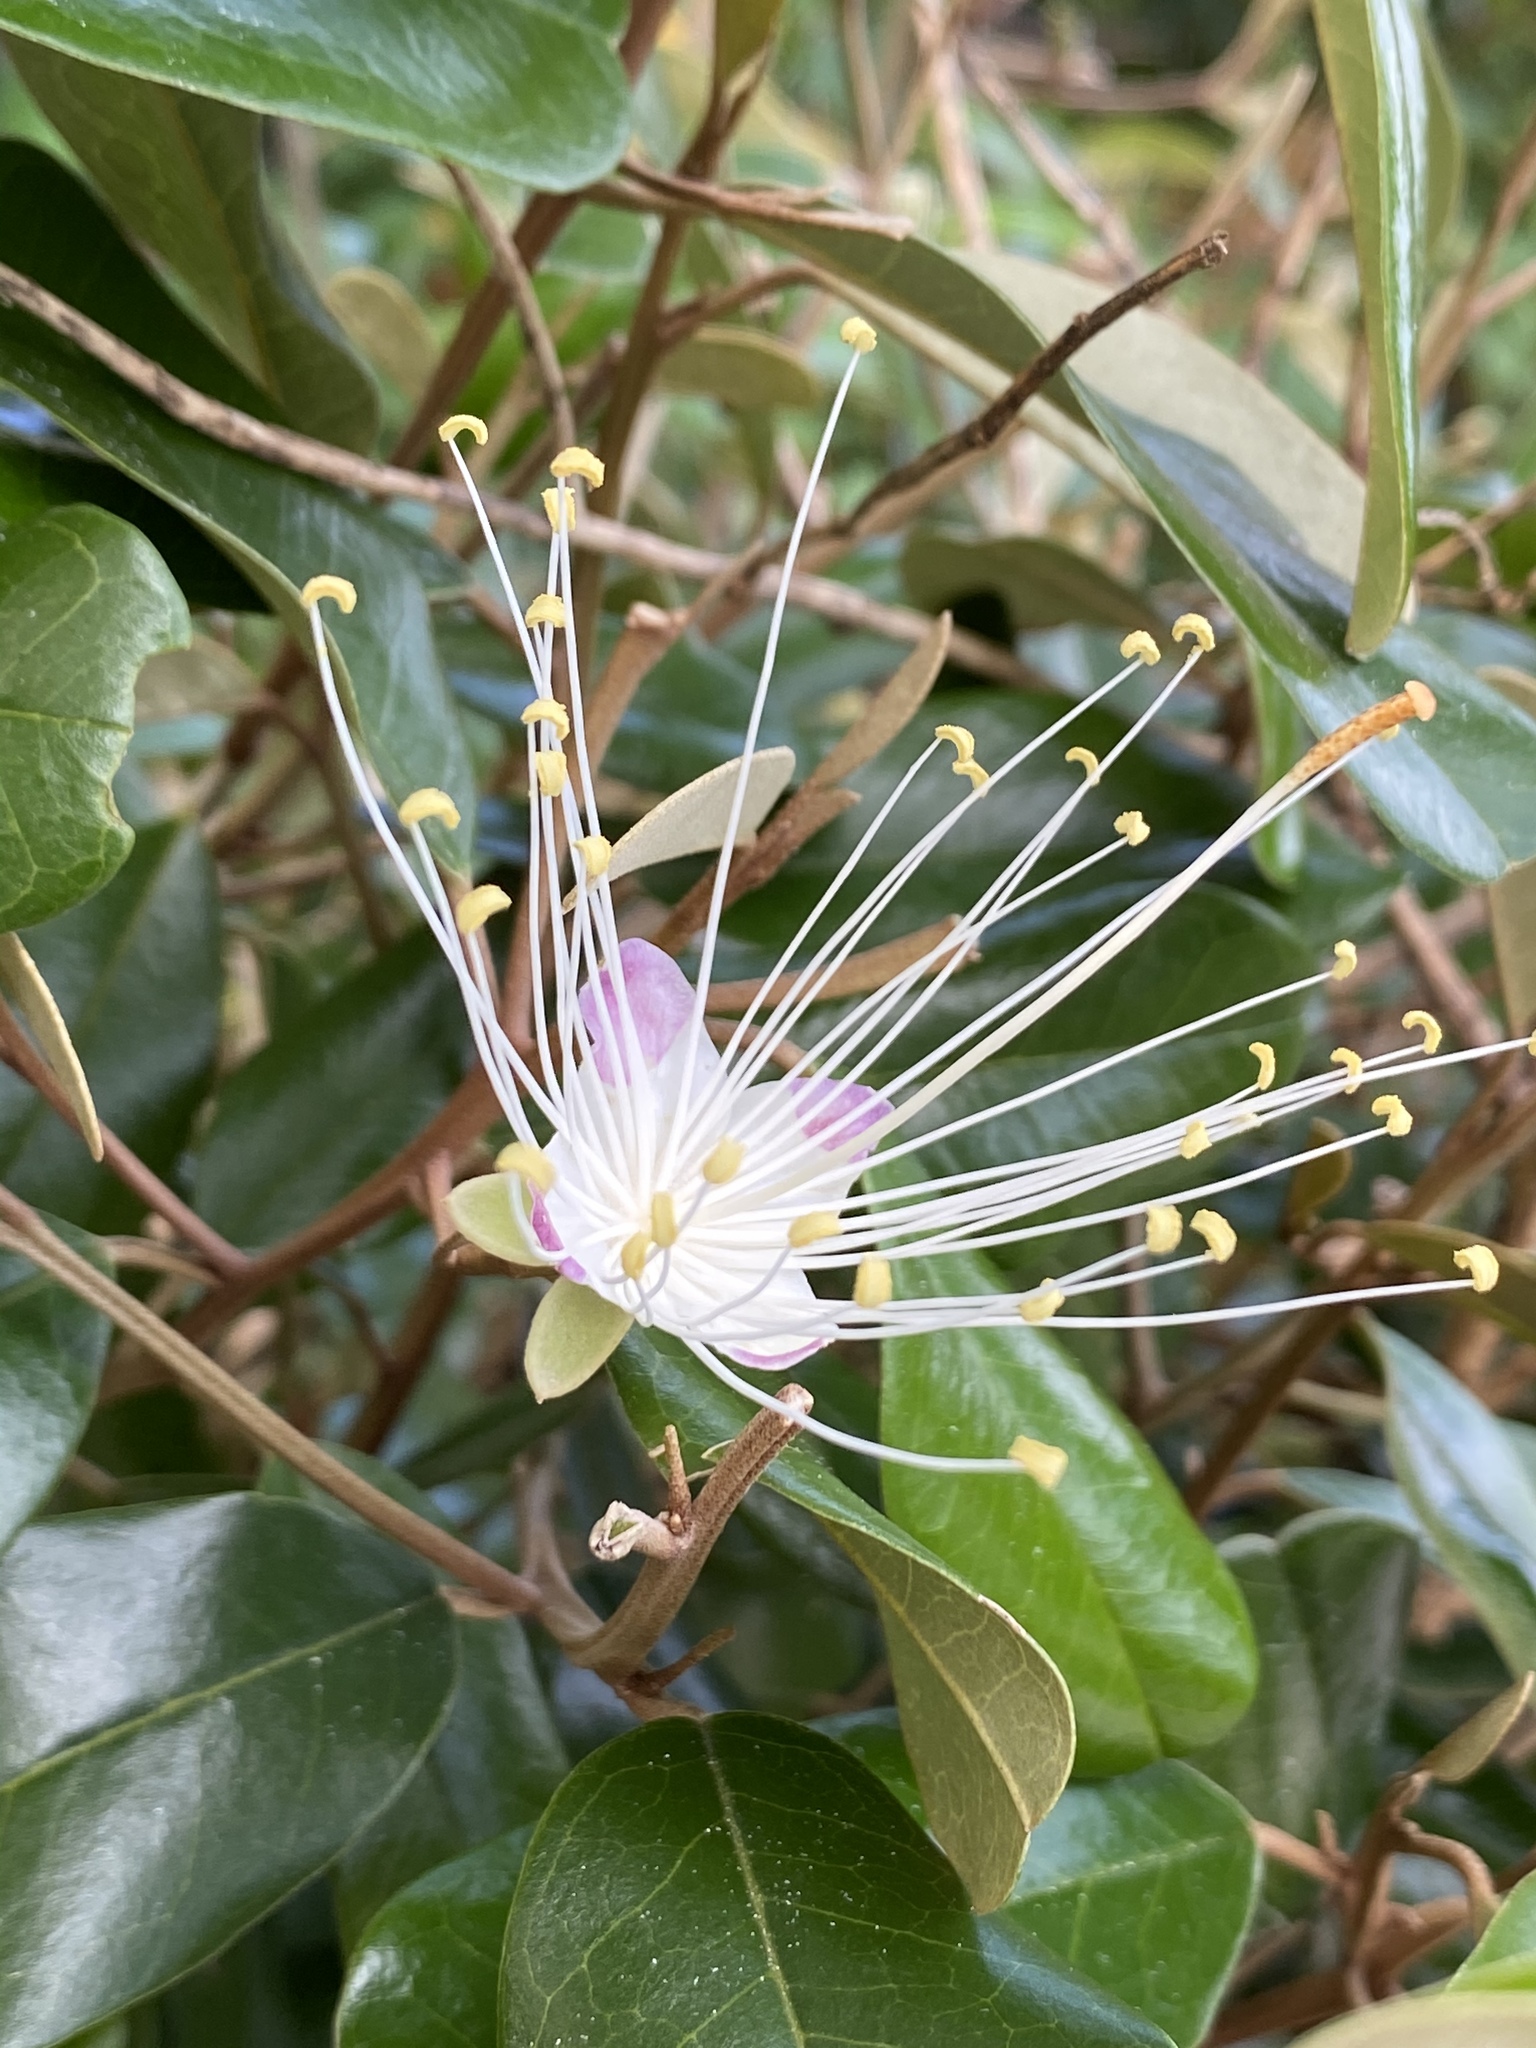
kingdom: Plantae
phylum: Tracheophyta
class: Magnoliopsida
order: Brassicales
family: Capparaceae
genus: Quadrella
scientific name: Quadrella cynophallophora
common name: Black willow
